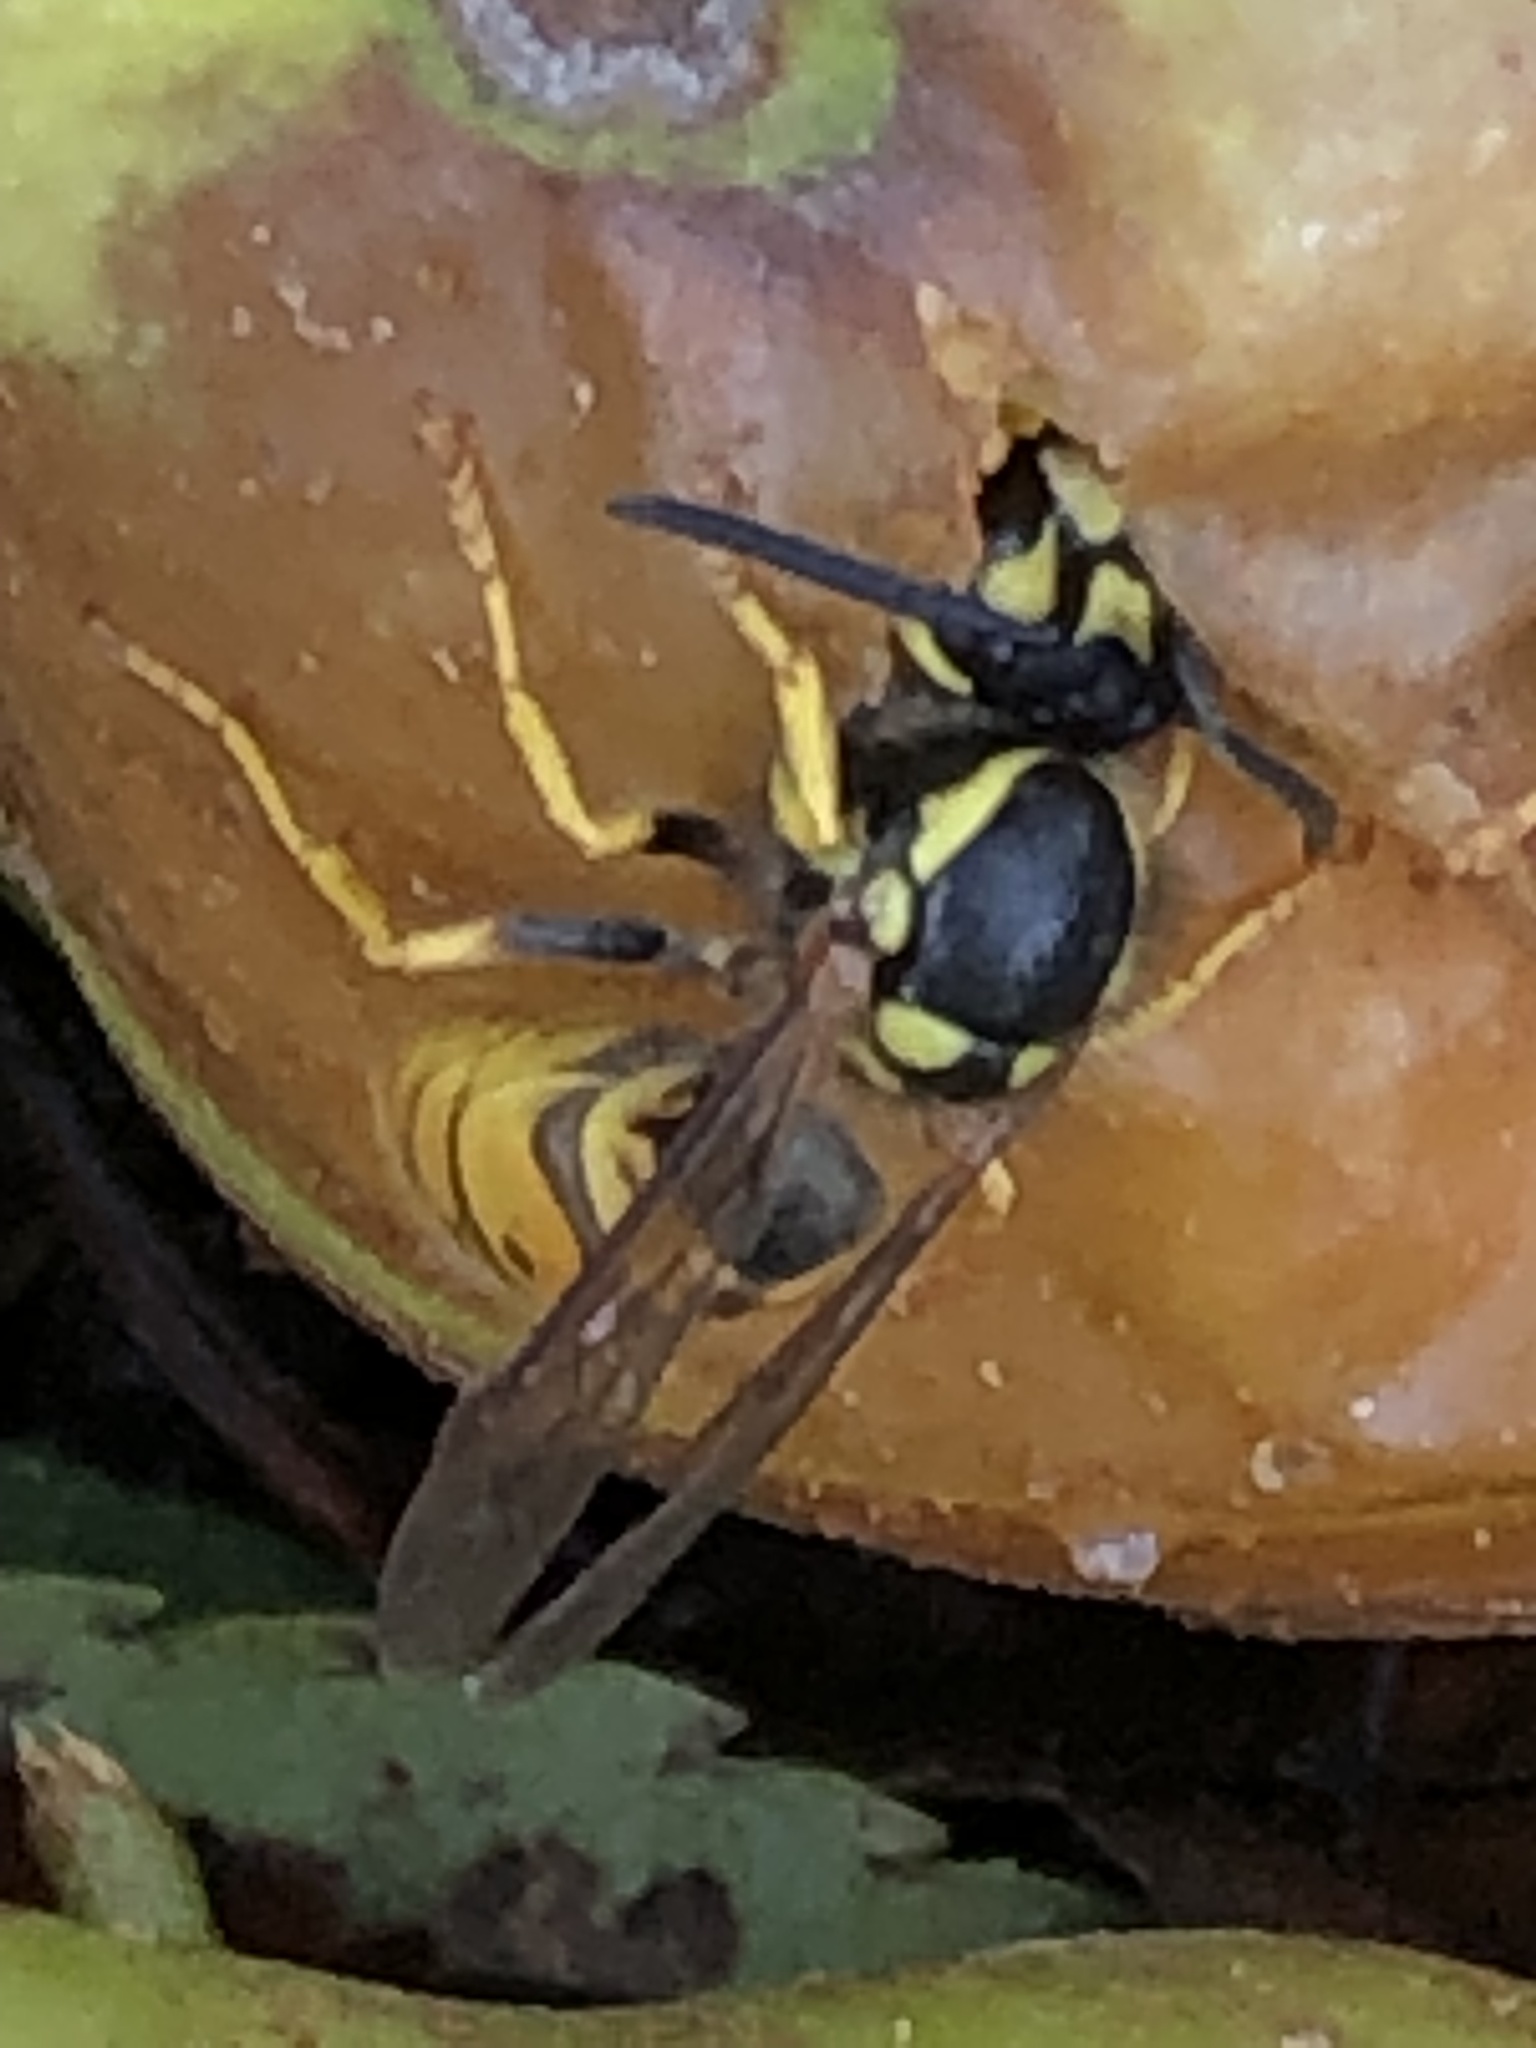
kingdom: Animalia
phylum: Arthropoda
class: Insecta
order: Hymenoptera
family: Vespidae
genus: Vespula
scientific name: Vespula germanica
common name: German wasp
